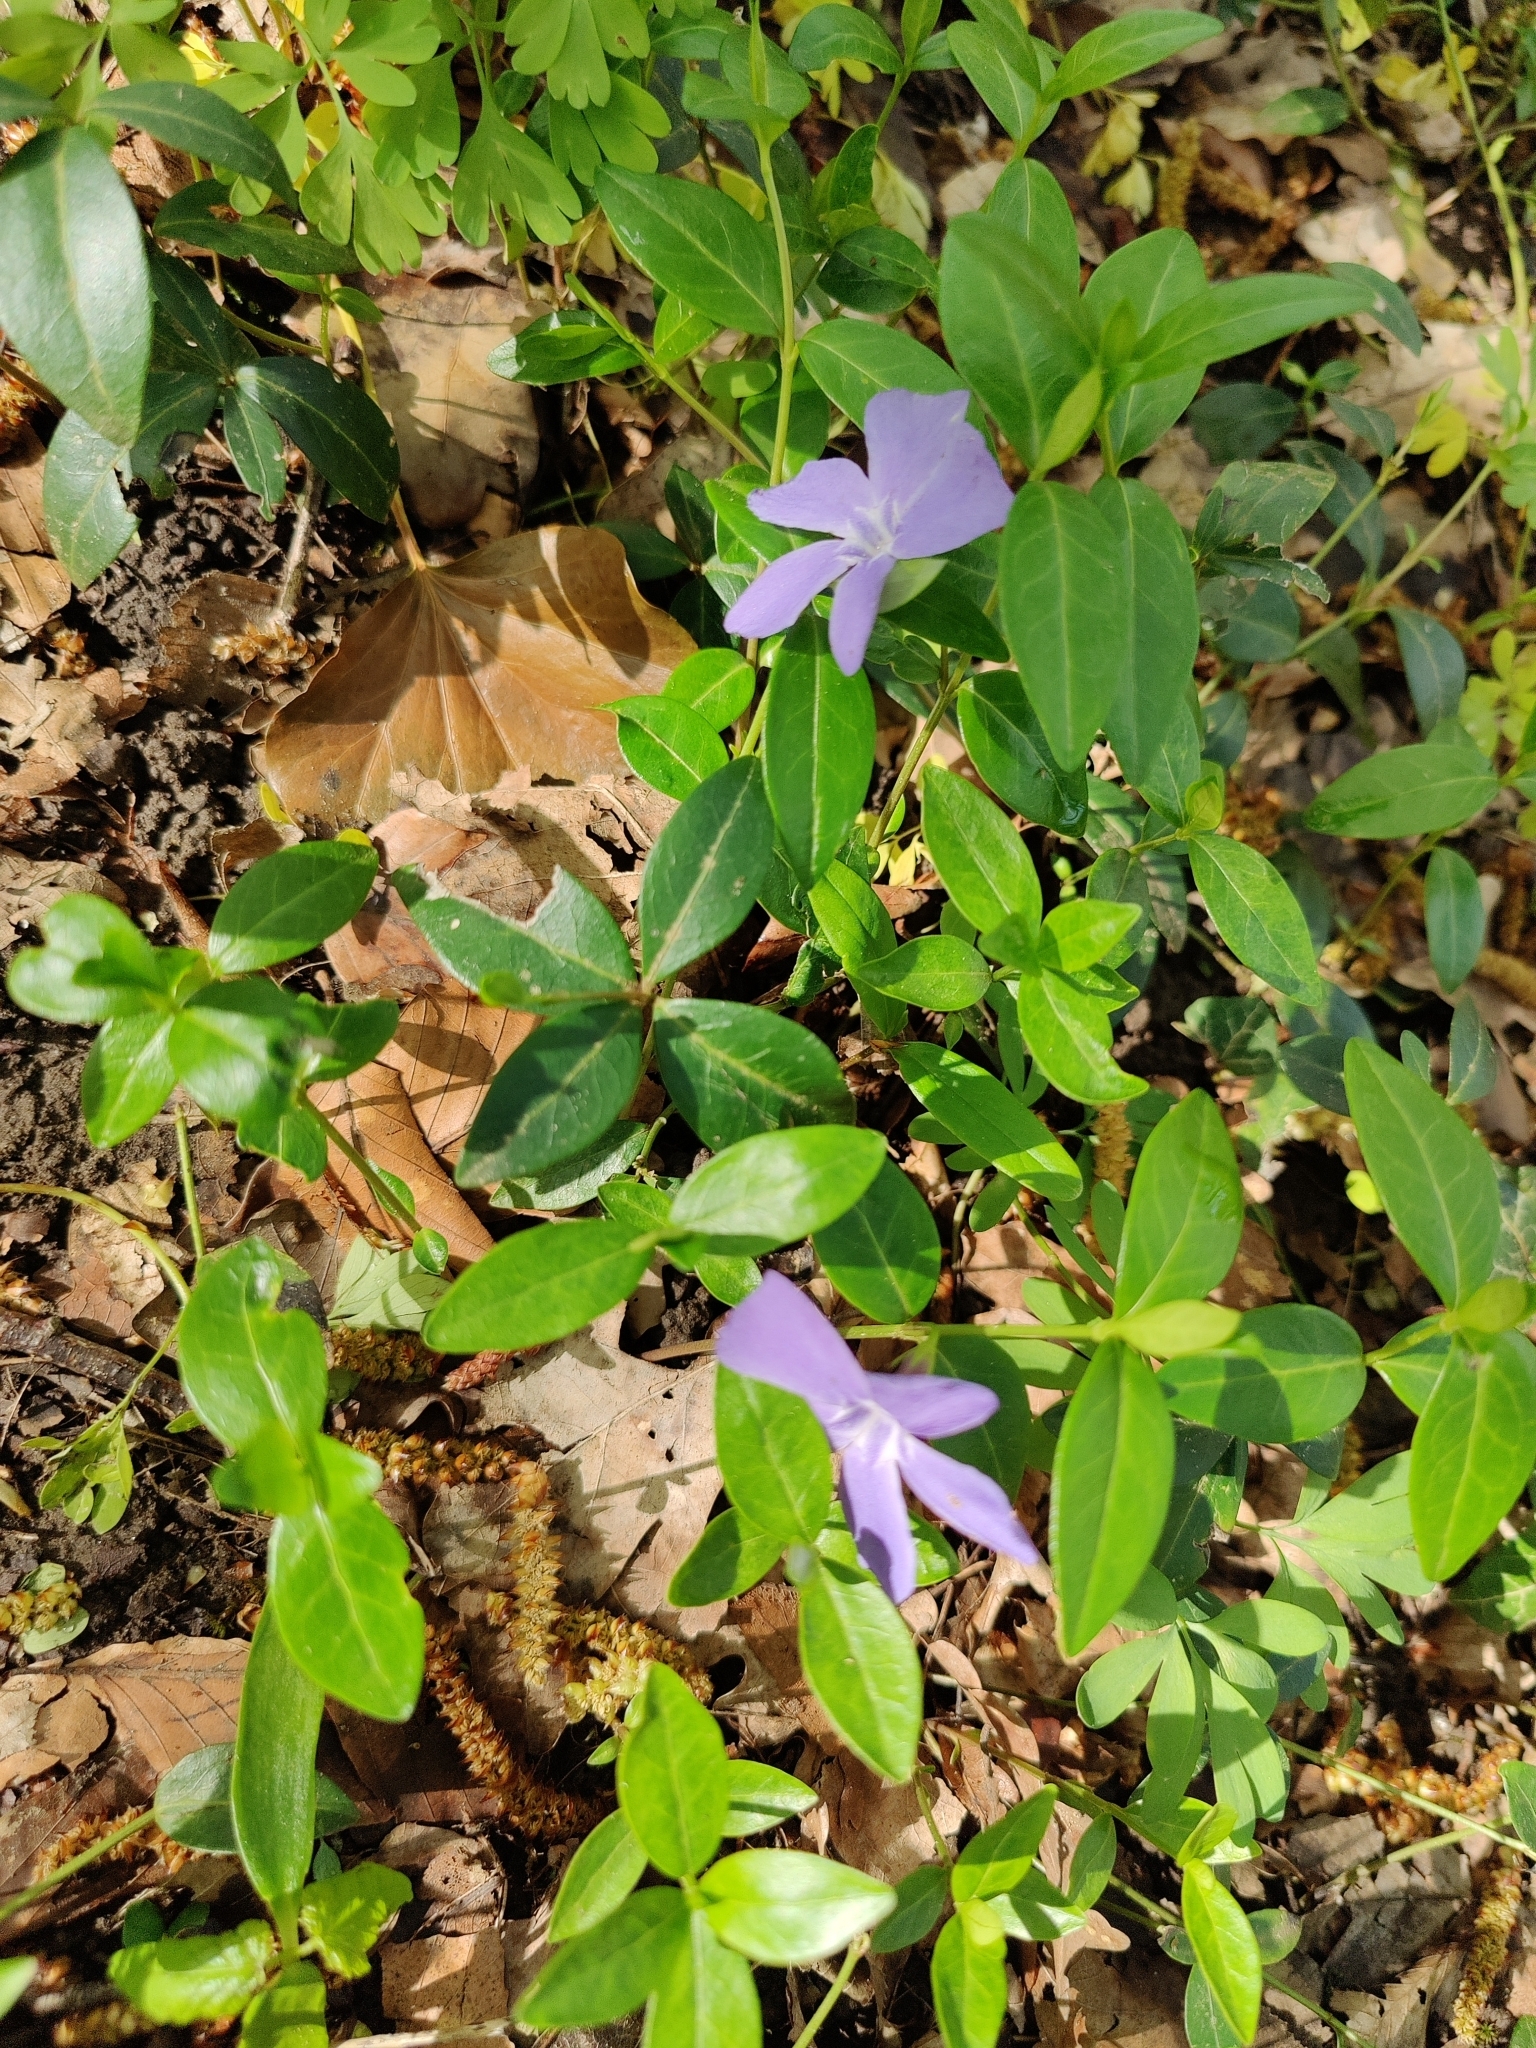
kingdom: Plantae
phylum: Tracheophyta
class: Magnoliopsida
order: Gentianales
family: Apocynaceae
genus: Vinca
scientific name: Vinca minor
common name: Lesser periwinkle
